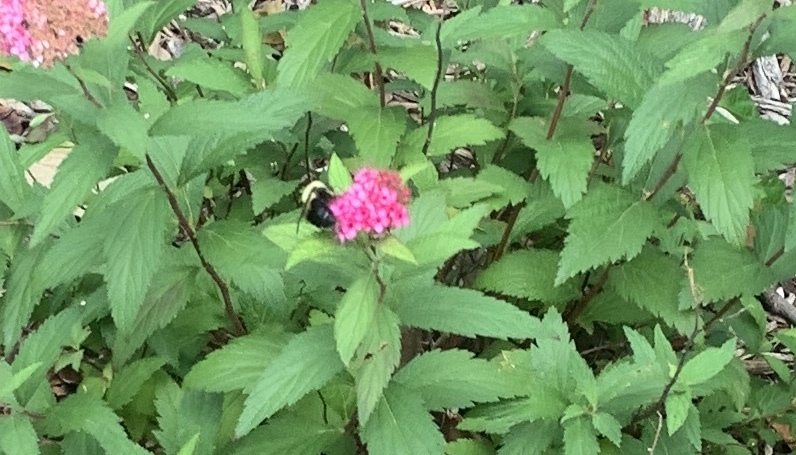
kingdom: Animalia
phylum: Arthropoda
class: Insecta
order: Hymenoptera
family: Apidae
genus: Bombus
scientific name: Bombus bimaculatus
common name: Two-spotted bumble bee
